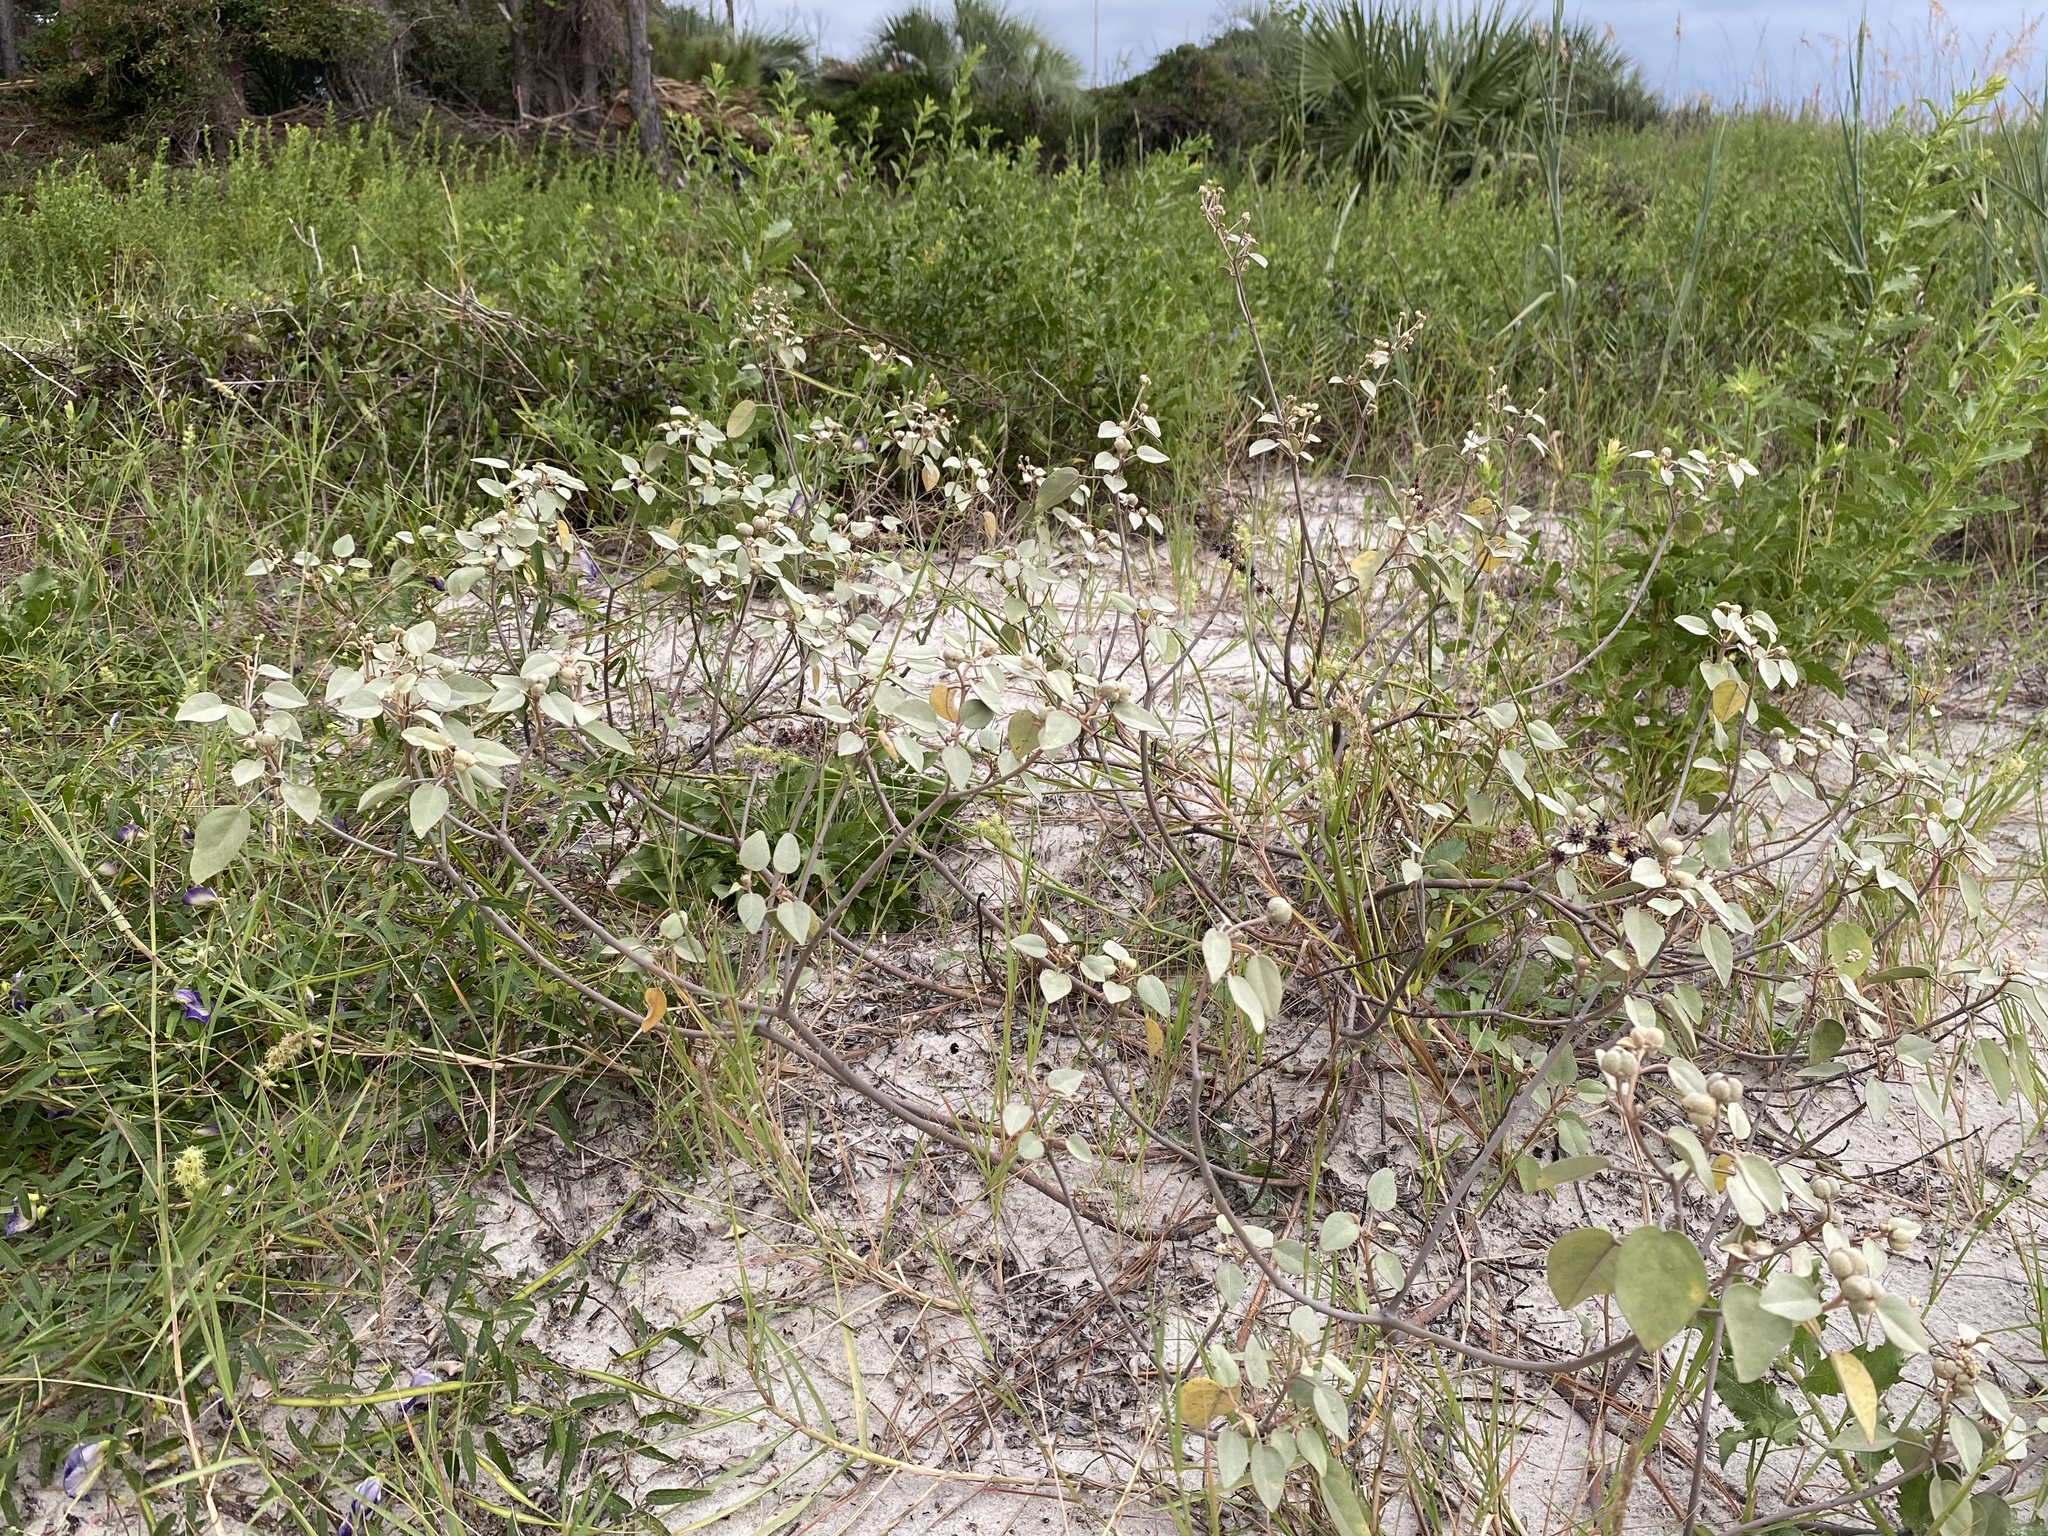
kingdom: Plantae
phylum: Tracheophyta
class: Magnoliopsida
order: Malpighiales
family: Euphorbiaceae
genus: Croton
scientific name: Croton punctatus
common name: Beach-tea
